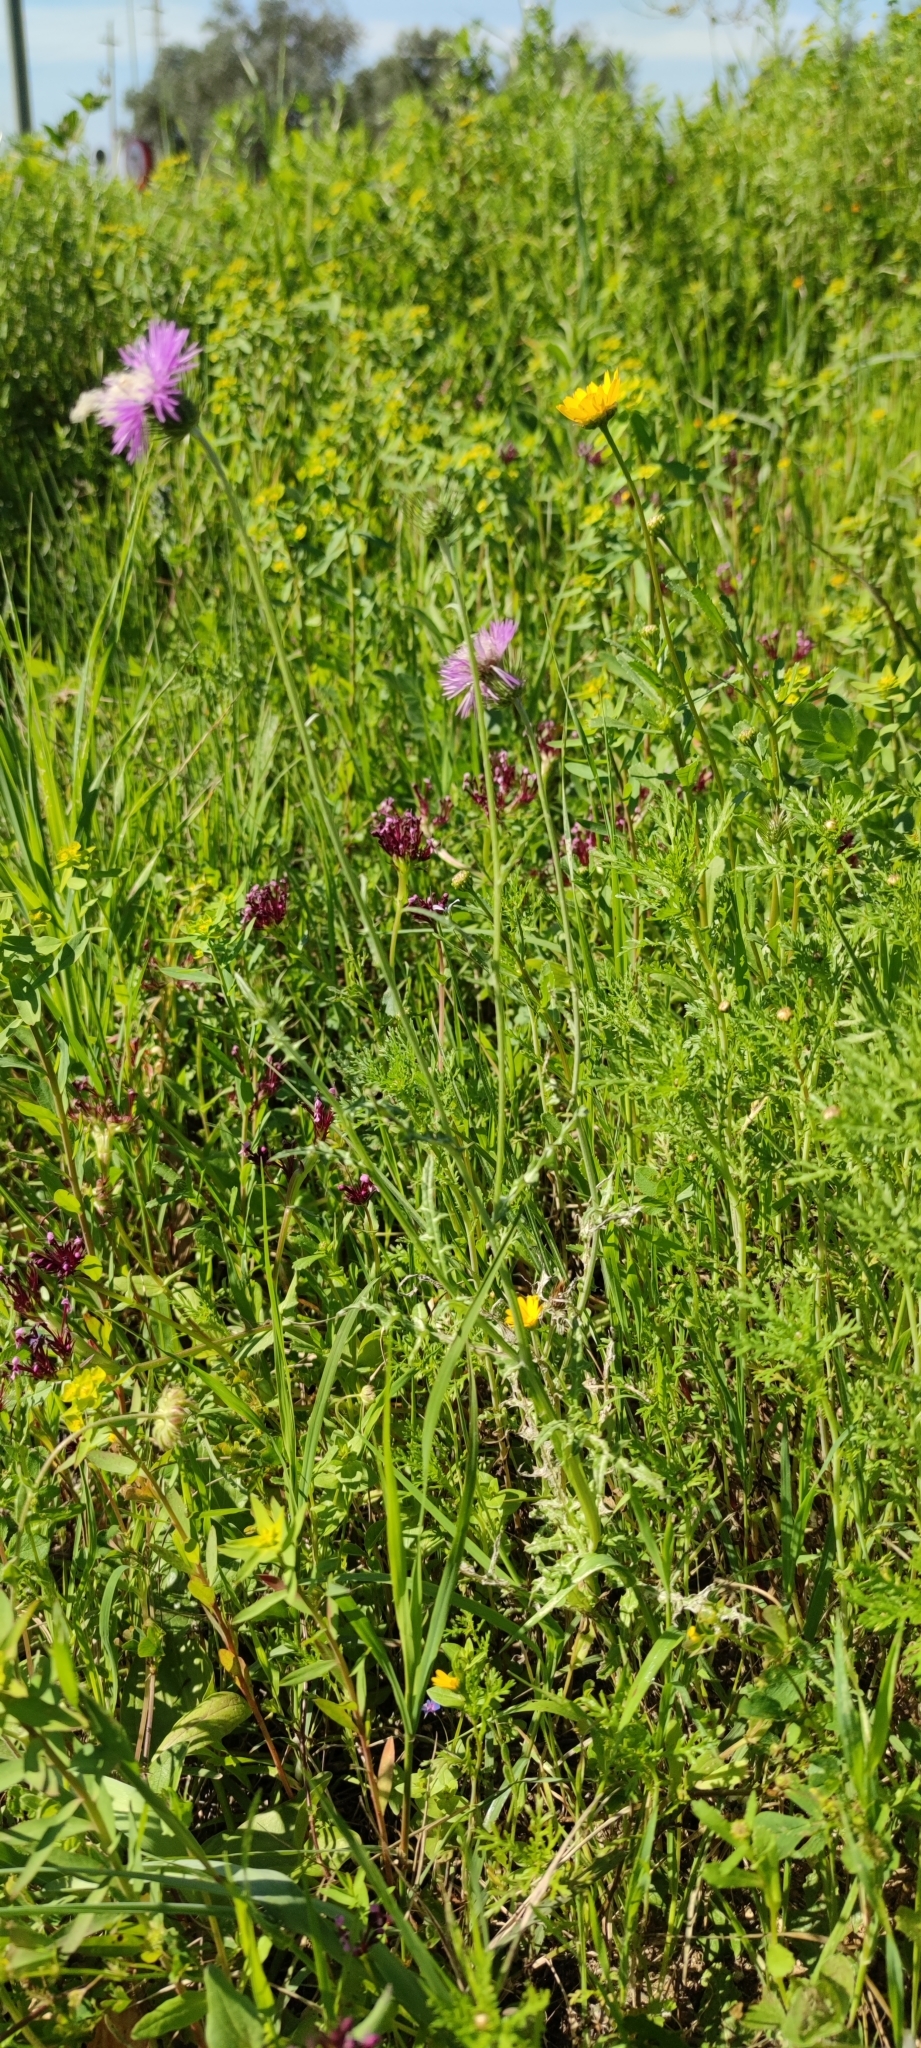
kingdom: Plantae
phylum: Tracheophyta
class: Magnoliopsida
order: Asterales
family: Asteraceae
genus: Galactites
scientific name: Galactites tomentosa
